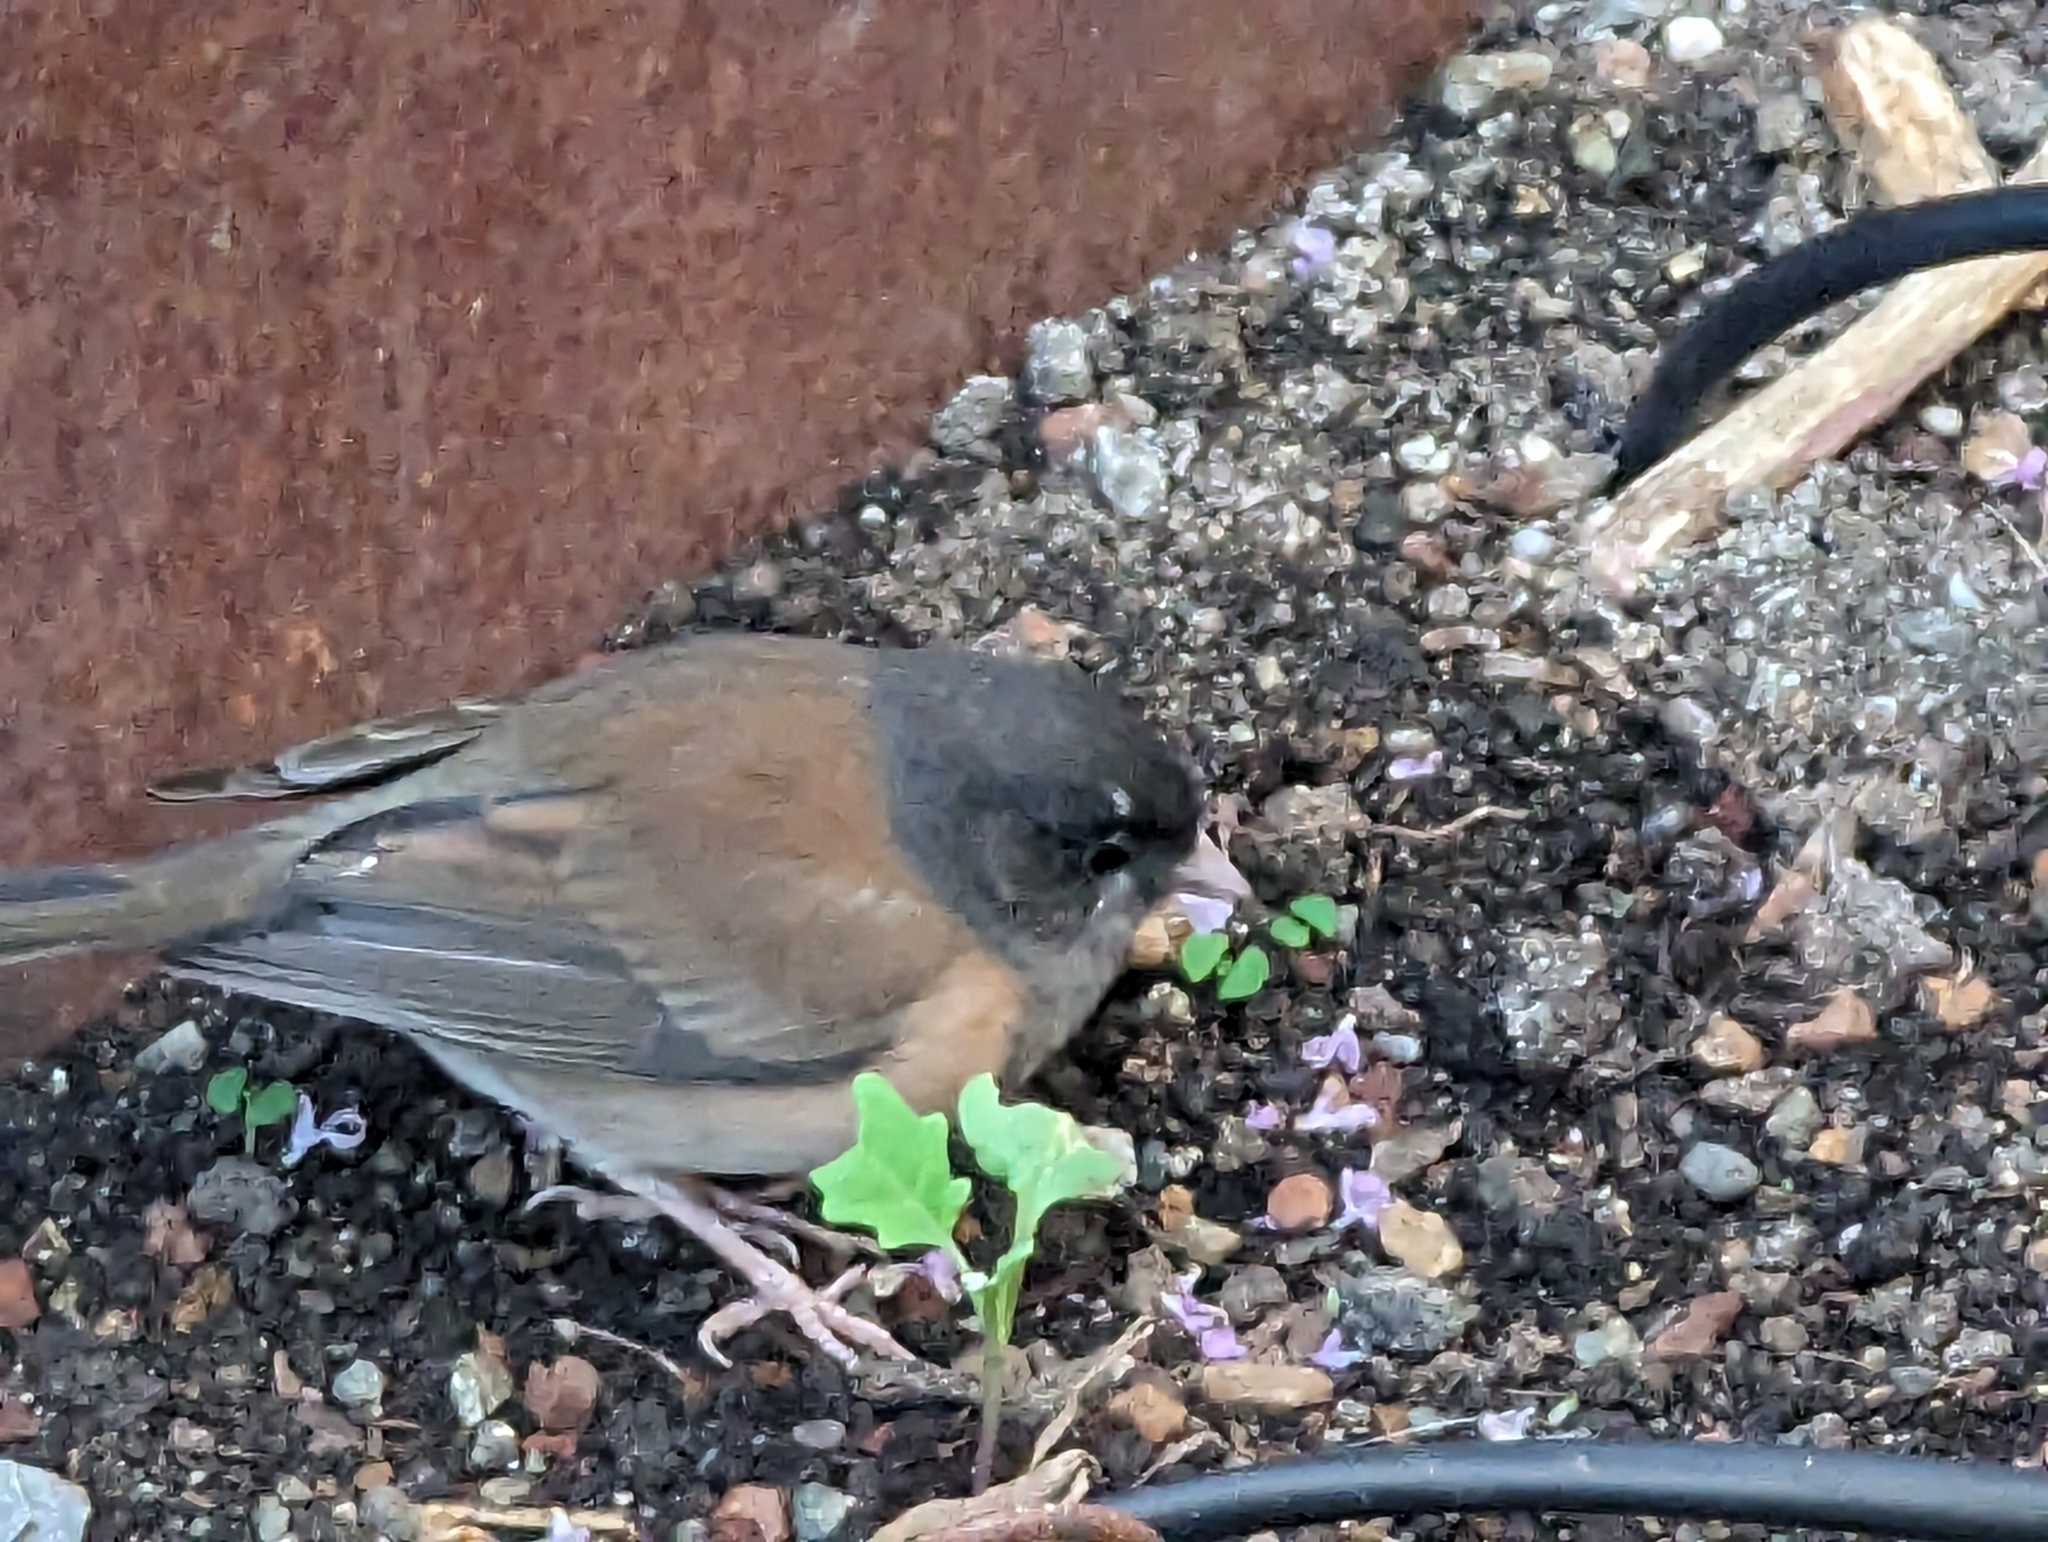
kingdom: Animalia
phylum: Chordata
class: Aves
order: Passeriformes
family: Passerellidae
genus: Junco
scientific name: Junco hyemalis
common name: Dark-eyed junco
